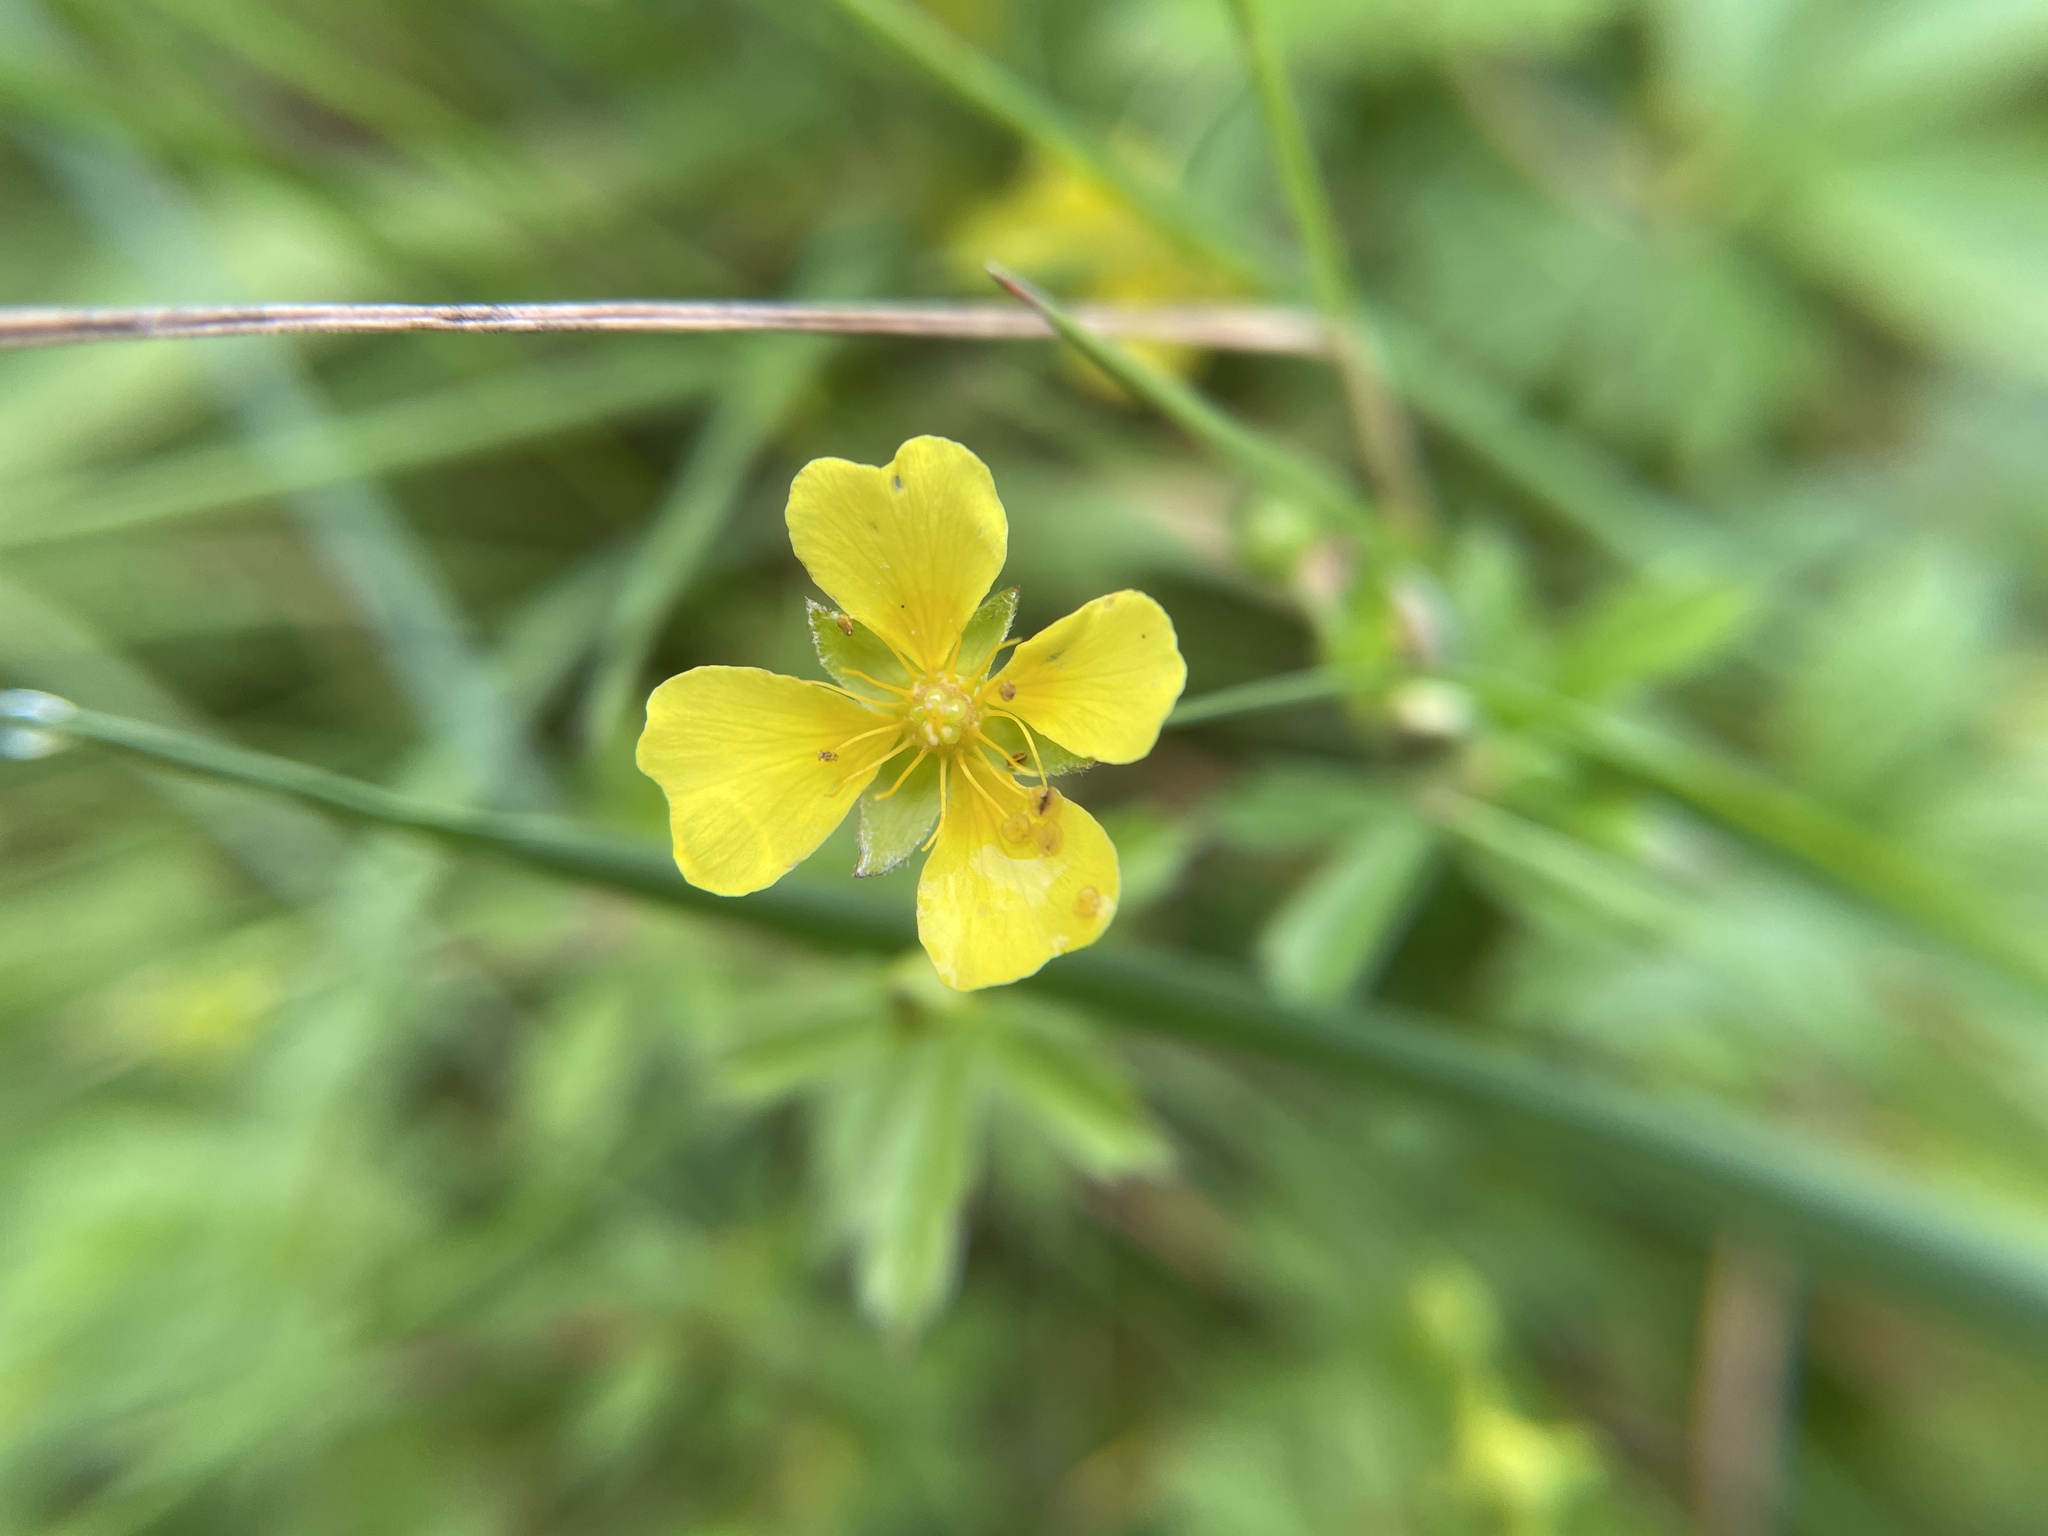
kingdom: Plantae
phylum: Tracheophyta
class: Magnoliopsida
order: Rosales
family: Rosaceae
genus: Potentilla
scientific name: Potentilla erecta
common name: Tormentil
